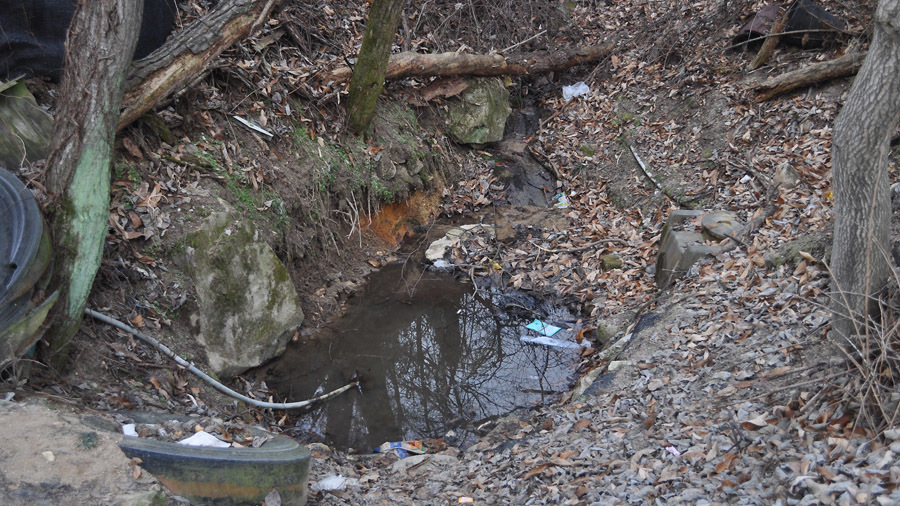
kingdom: Animalia
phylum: Chordata
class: Amphibia
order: Caudata
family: Hynobiidae
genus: Hynobius
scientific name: Hynobius leechii
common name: Gensan salamander
